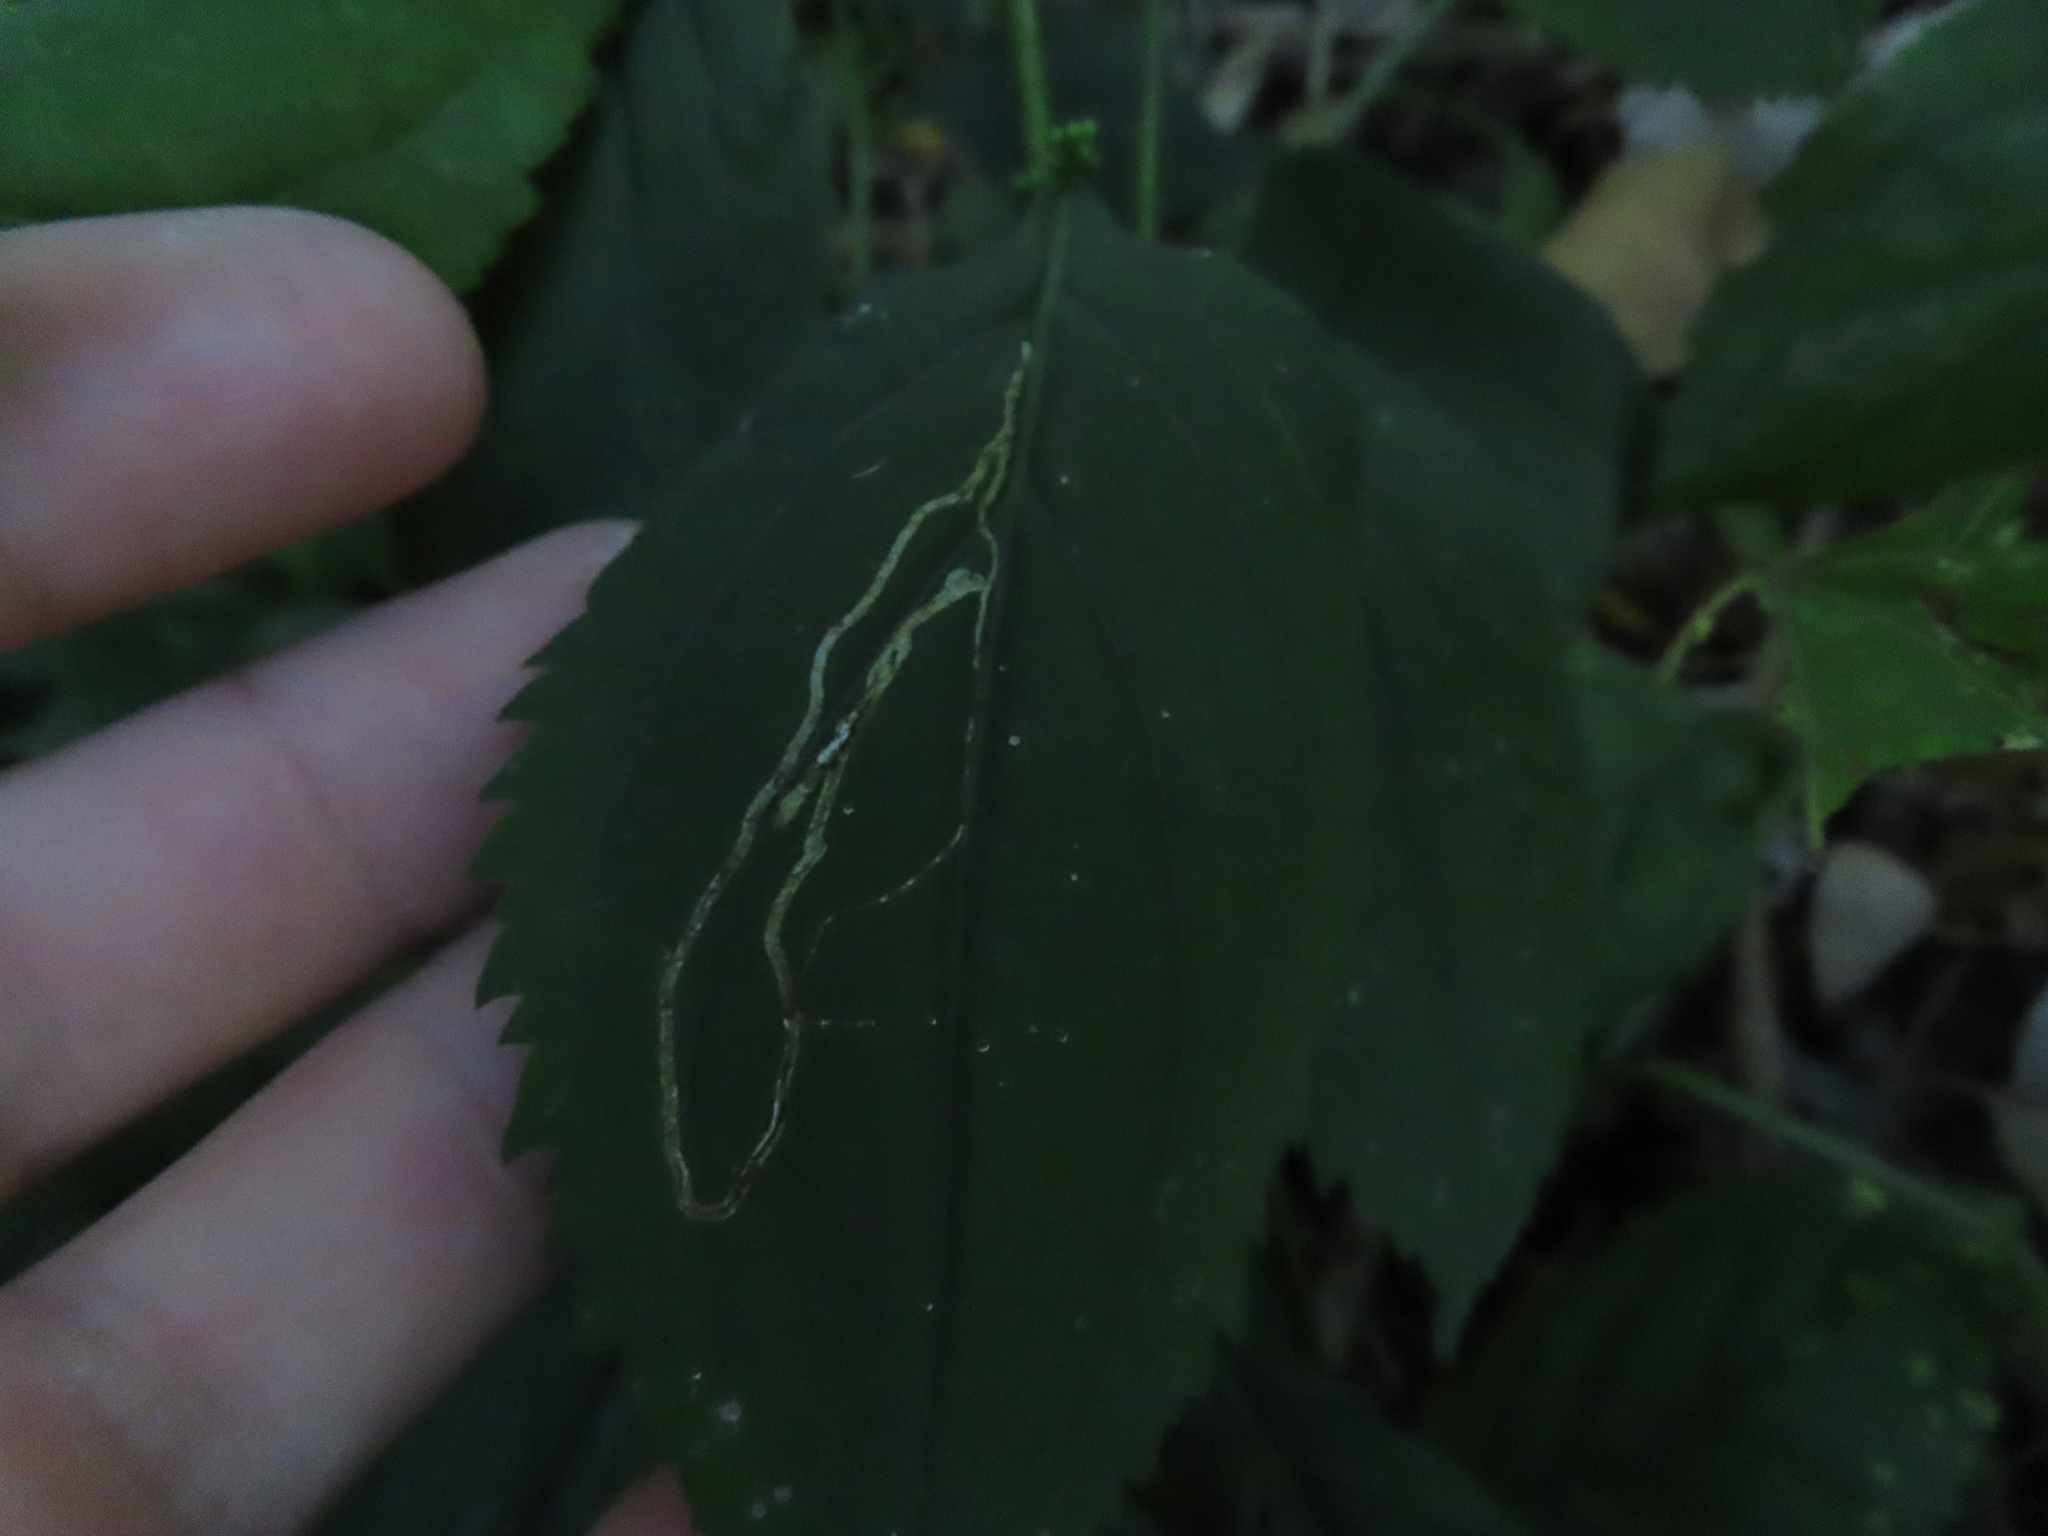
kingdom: Animalia
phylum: Arthropoda
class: Insecta
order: Diptera
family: Agromyzidae
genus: Ophiomyia
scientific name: Ophiomyia maura
